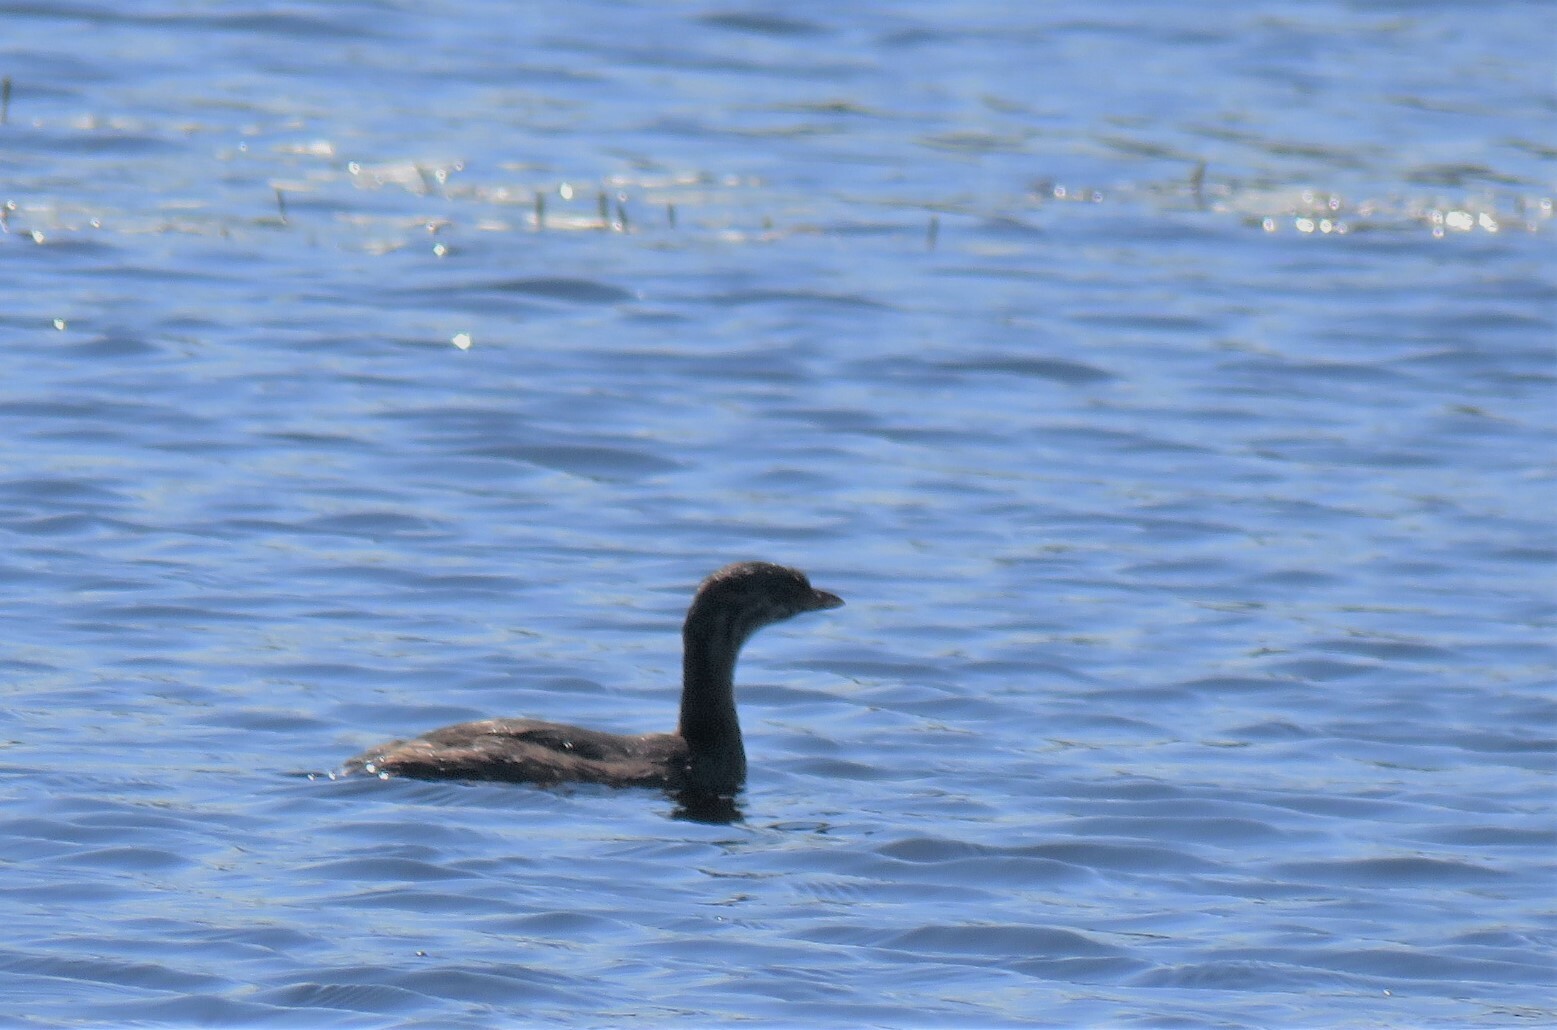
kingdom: Animalia
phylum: Chordata
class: Aves
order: Podicipediformes
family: Podicipedidae
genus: Podilymbus
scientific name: Podilymbus podiceps
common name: Pied-billed grebe
